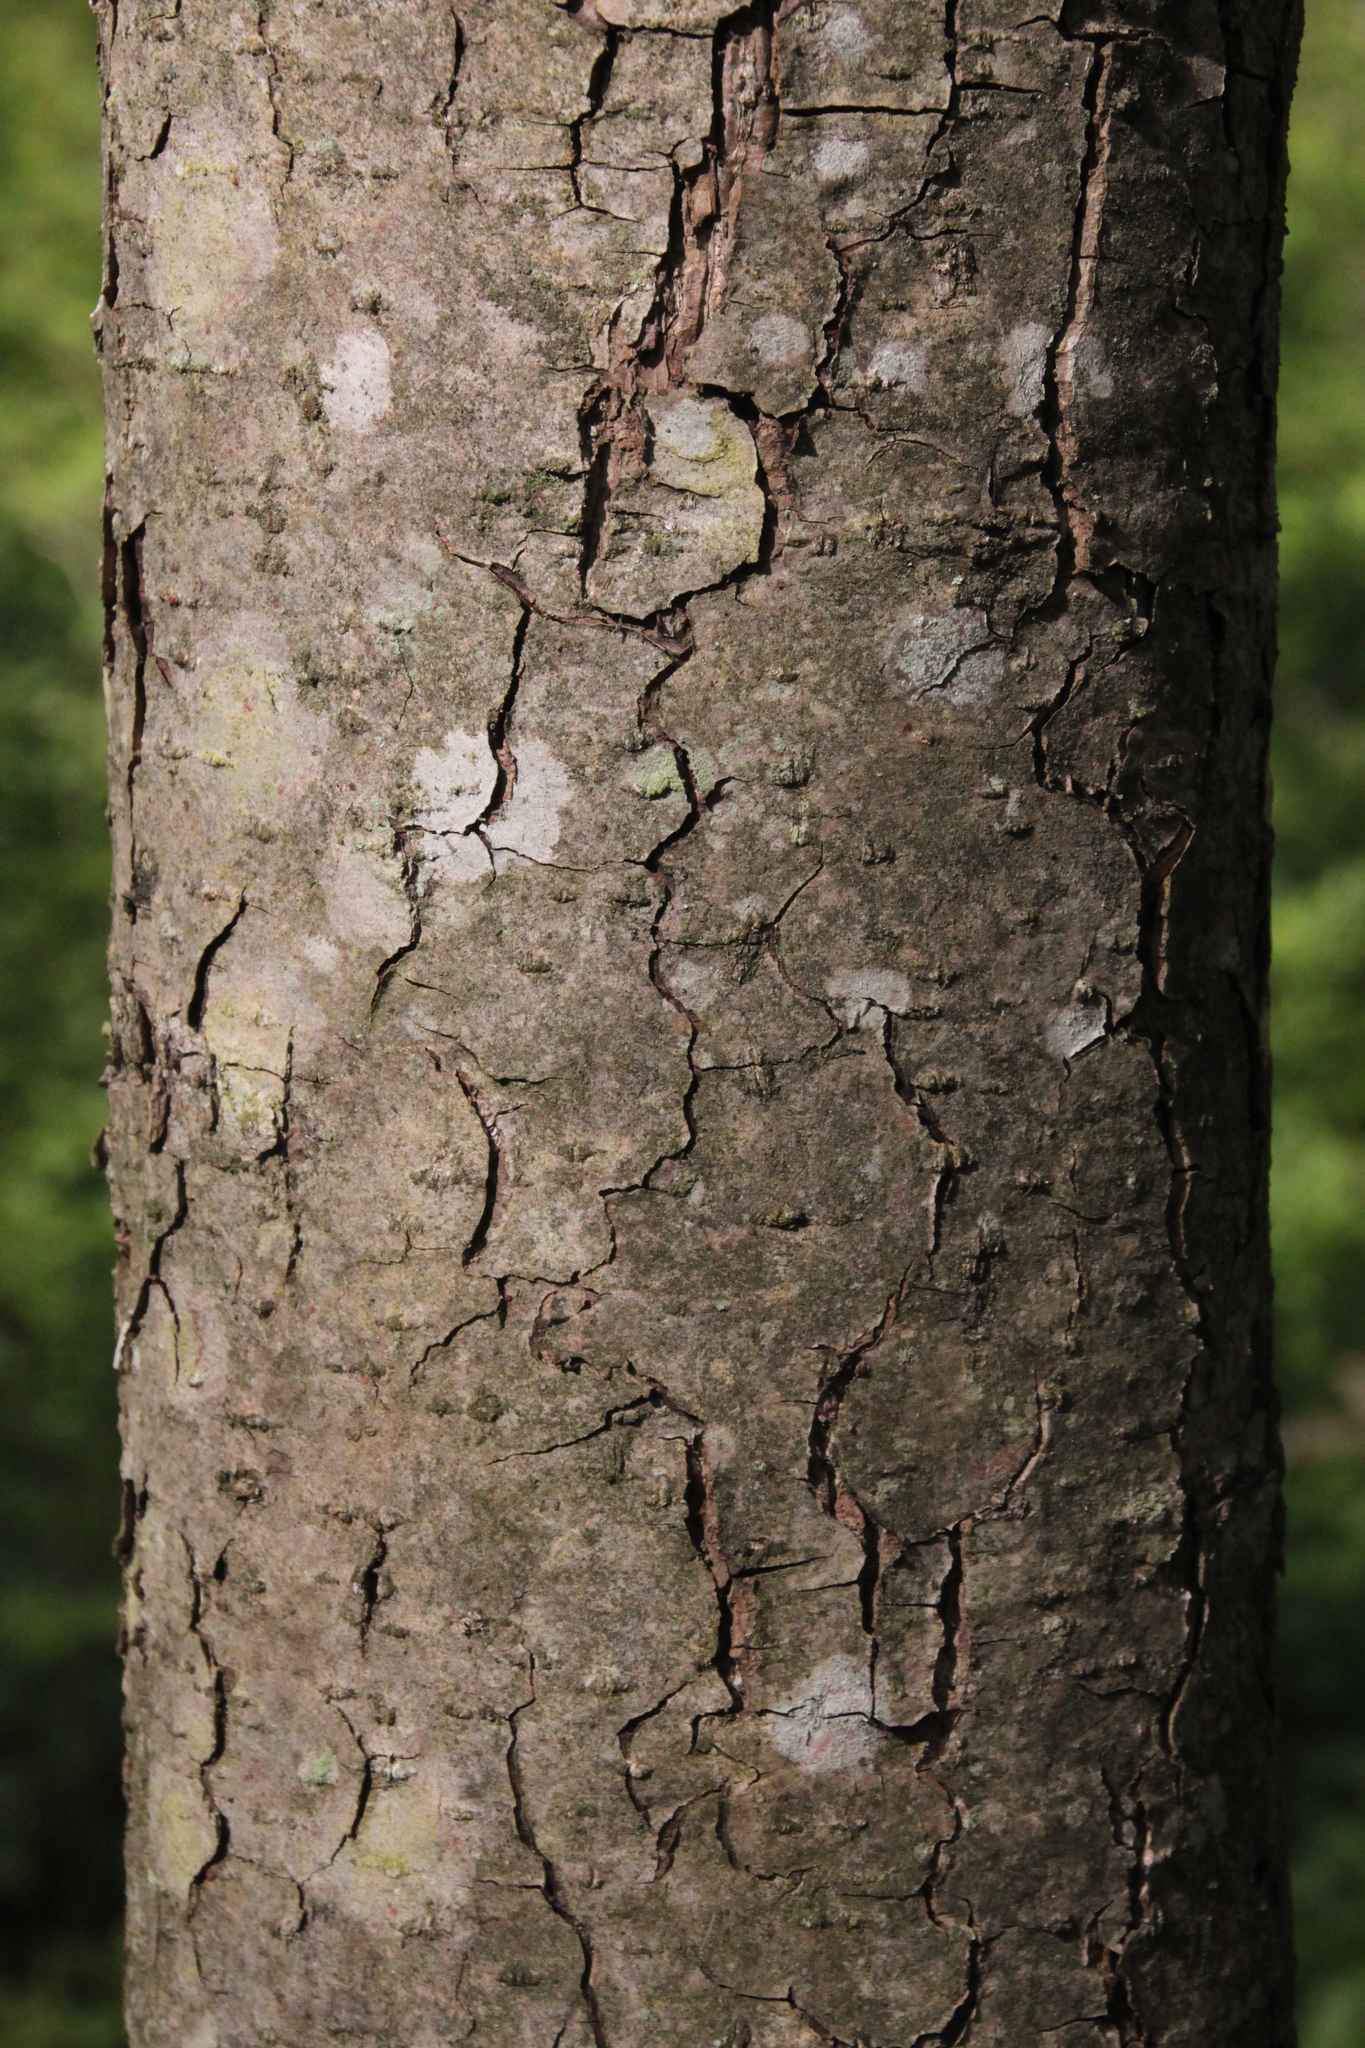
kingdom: Plantae
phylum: Tracheophyta
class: Magnoliopsida
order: Fagales
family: Betulaceae
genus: Alnus
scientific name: Alnus glutinosa
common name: Black alder
